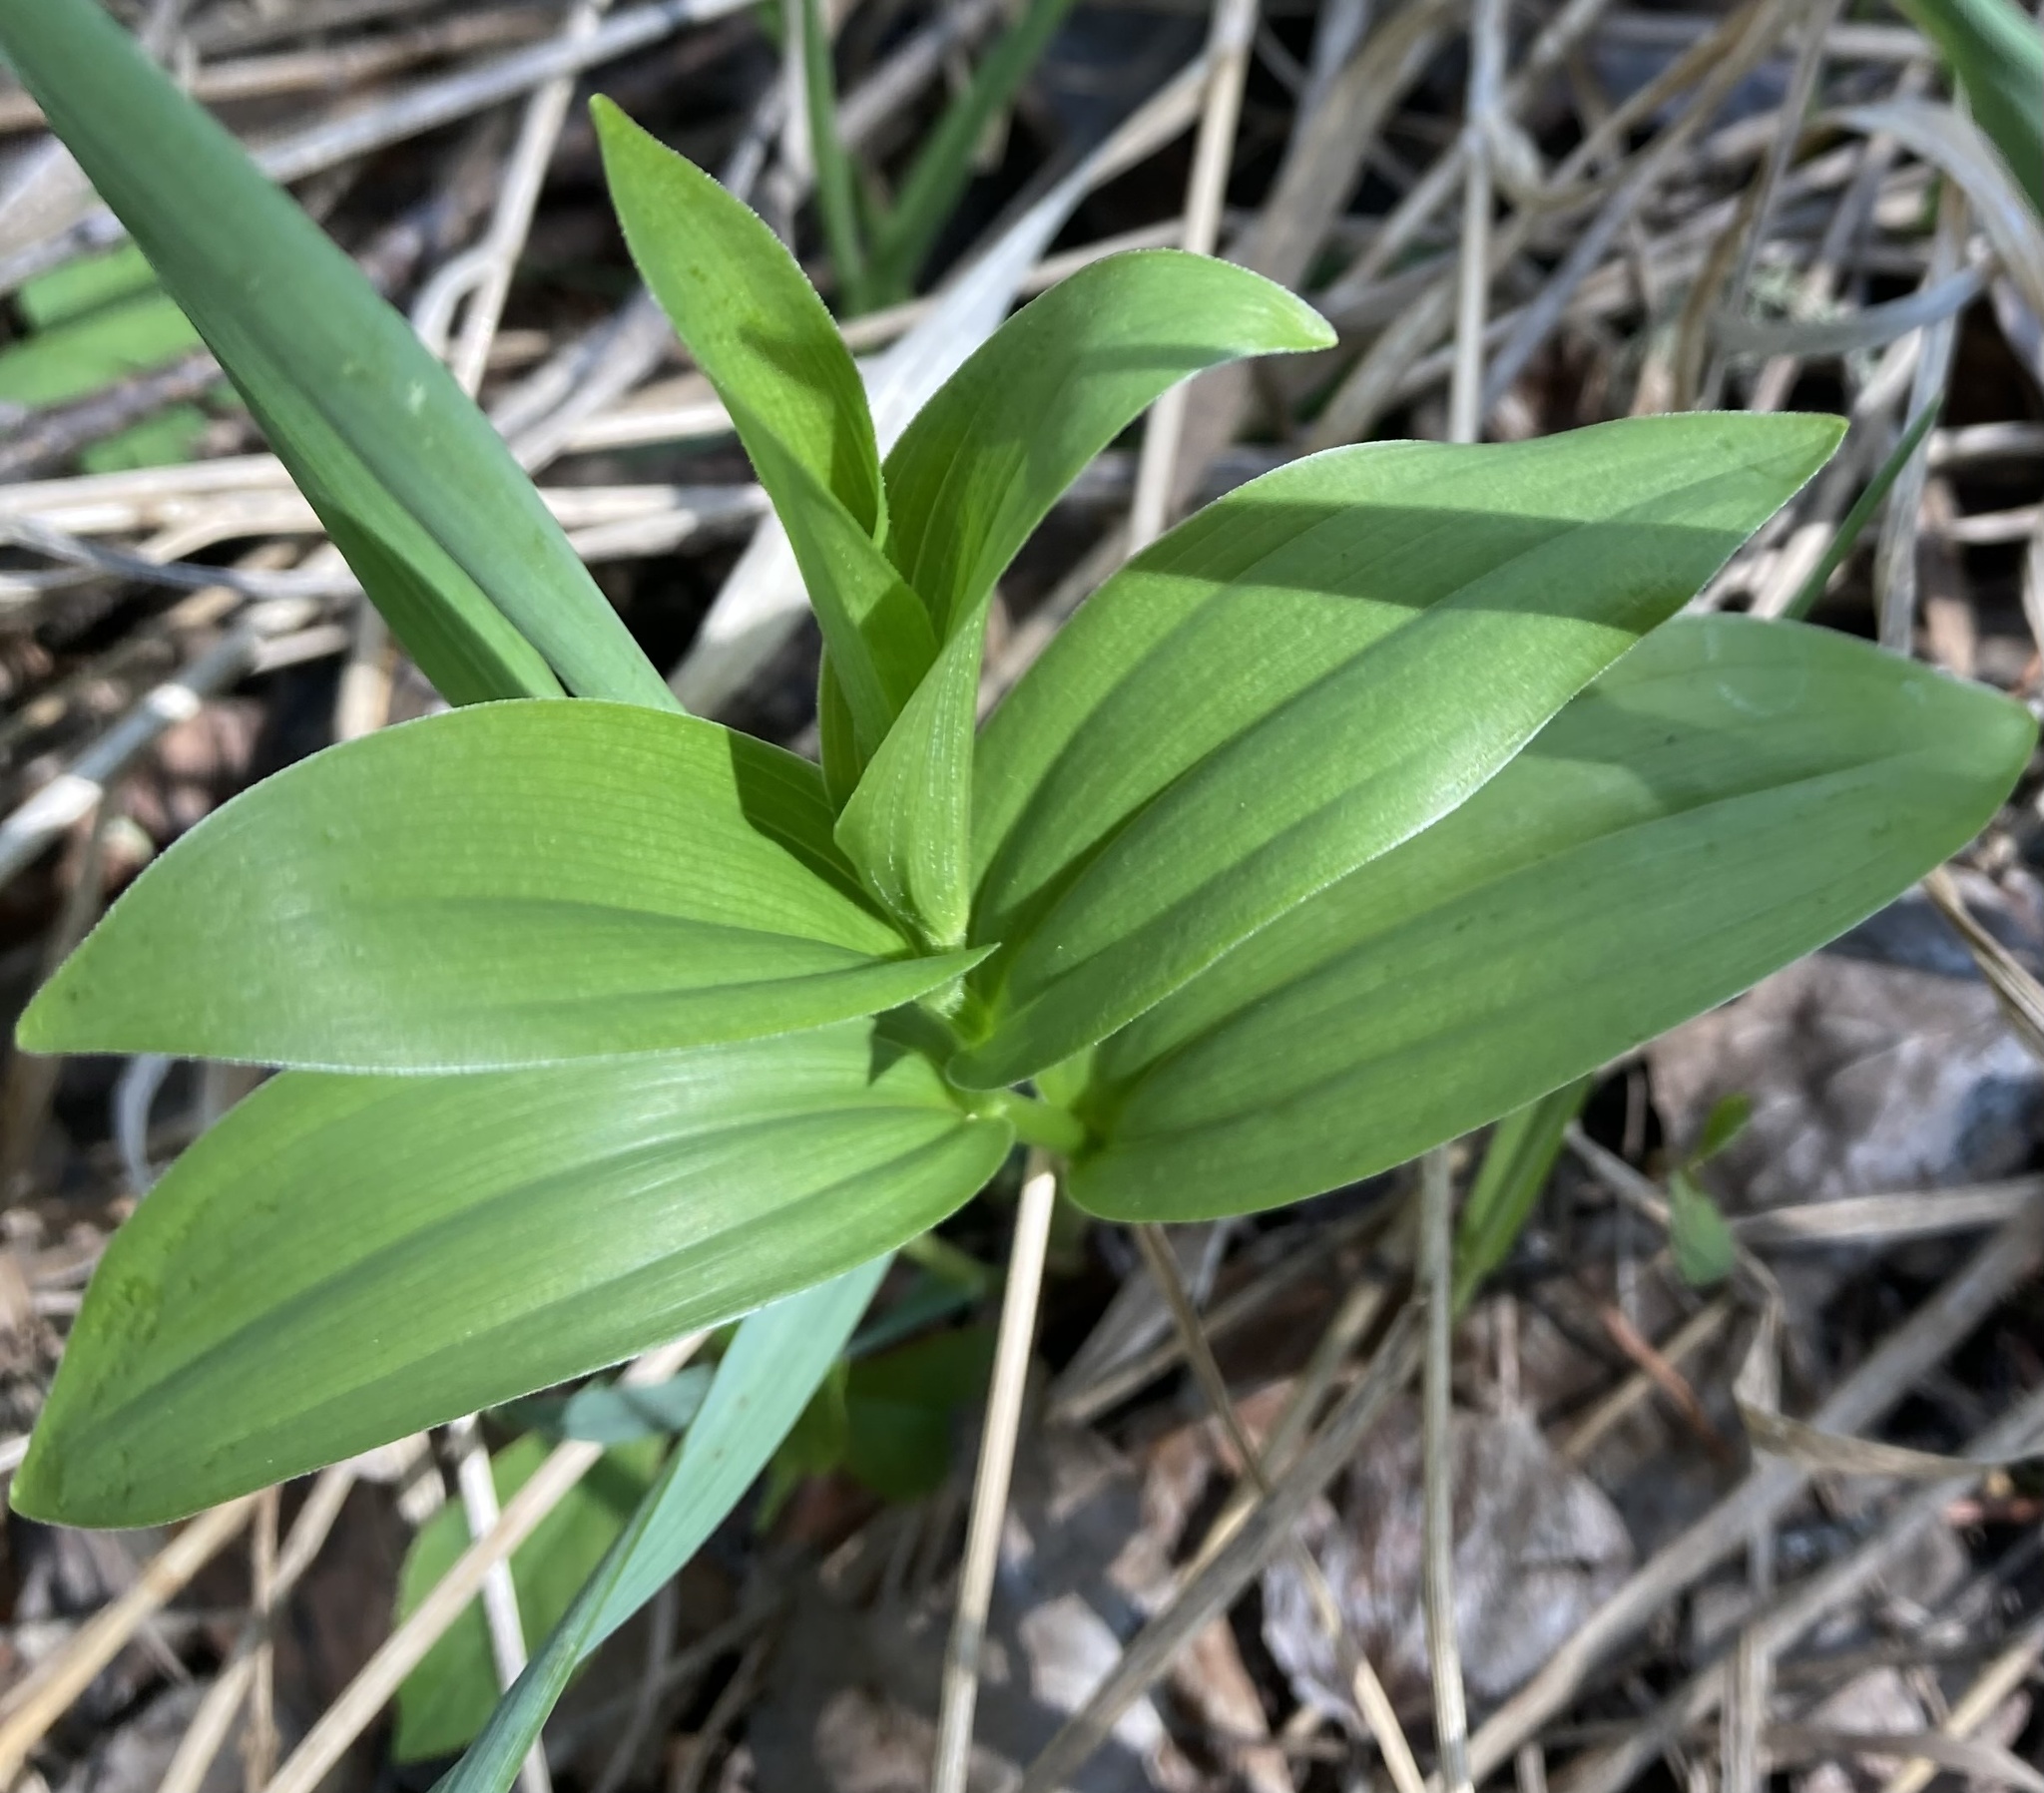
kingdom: Plantae
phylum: Tracheophyta
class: Liliopsida
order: Asparagales
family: Asparagaceae
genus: Maianthemum
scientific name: Maianthemum stellatum
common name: Little false solomon's seal
